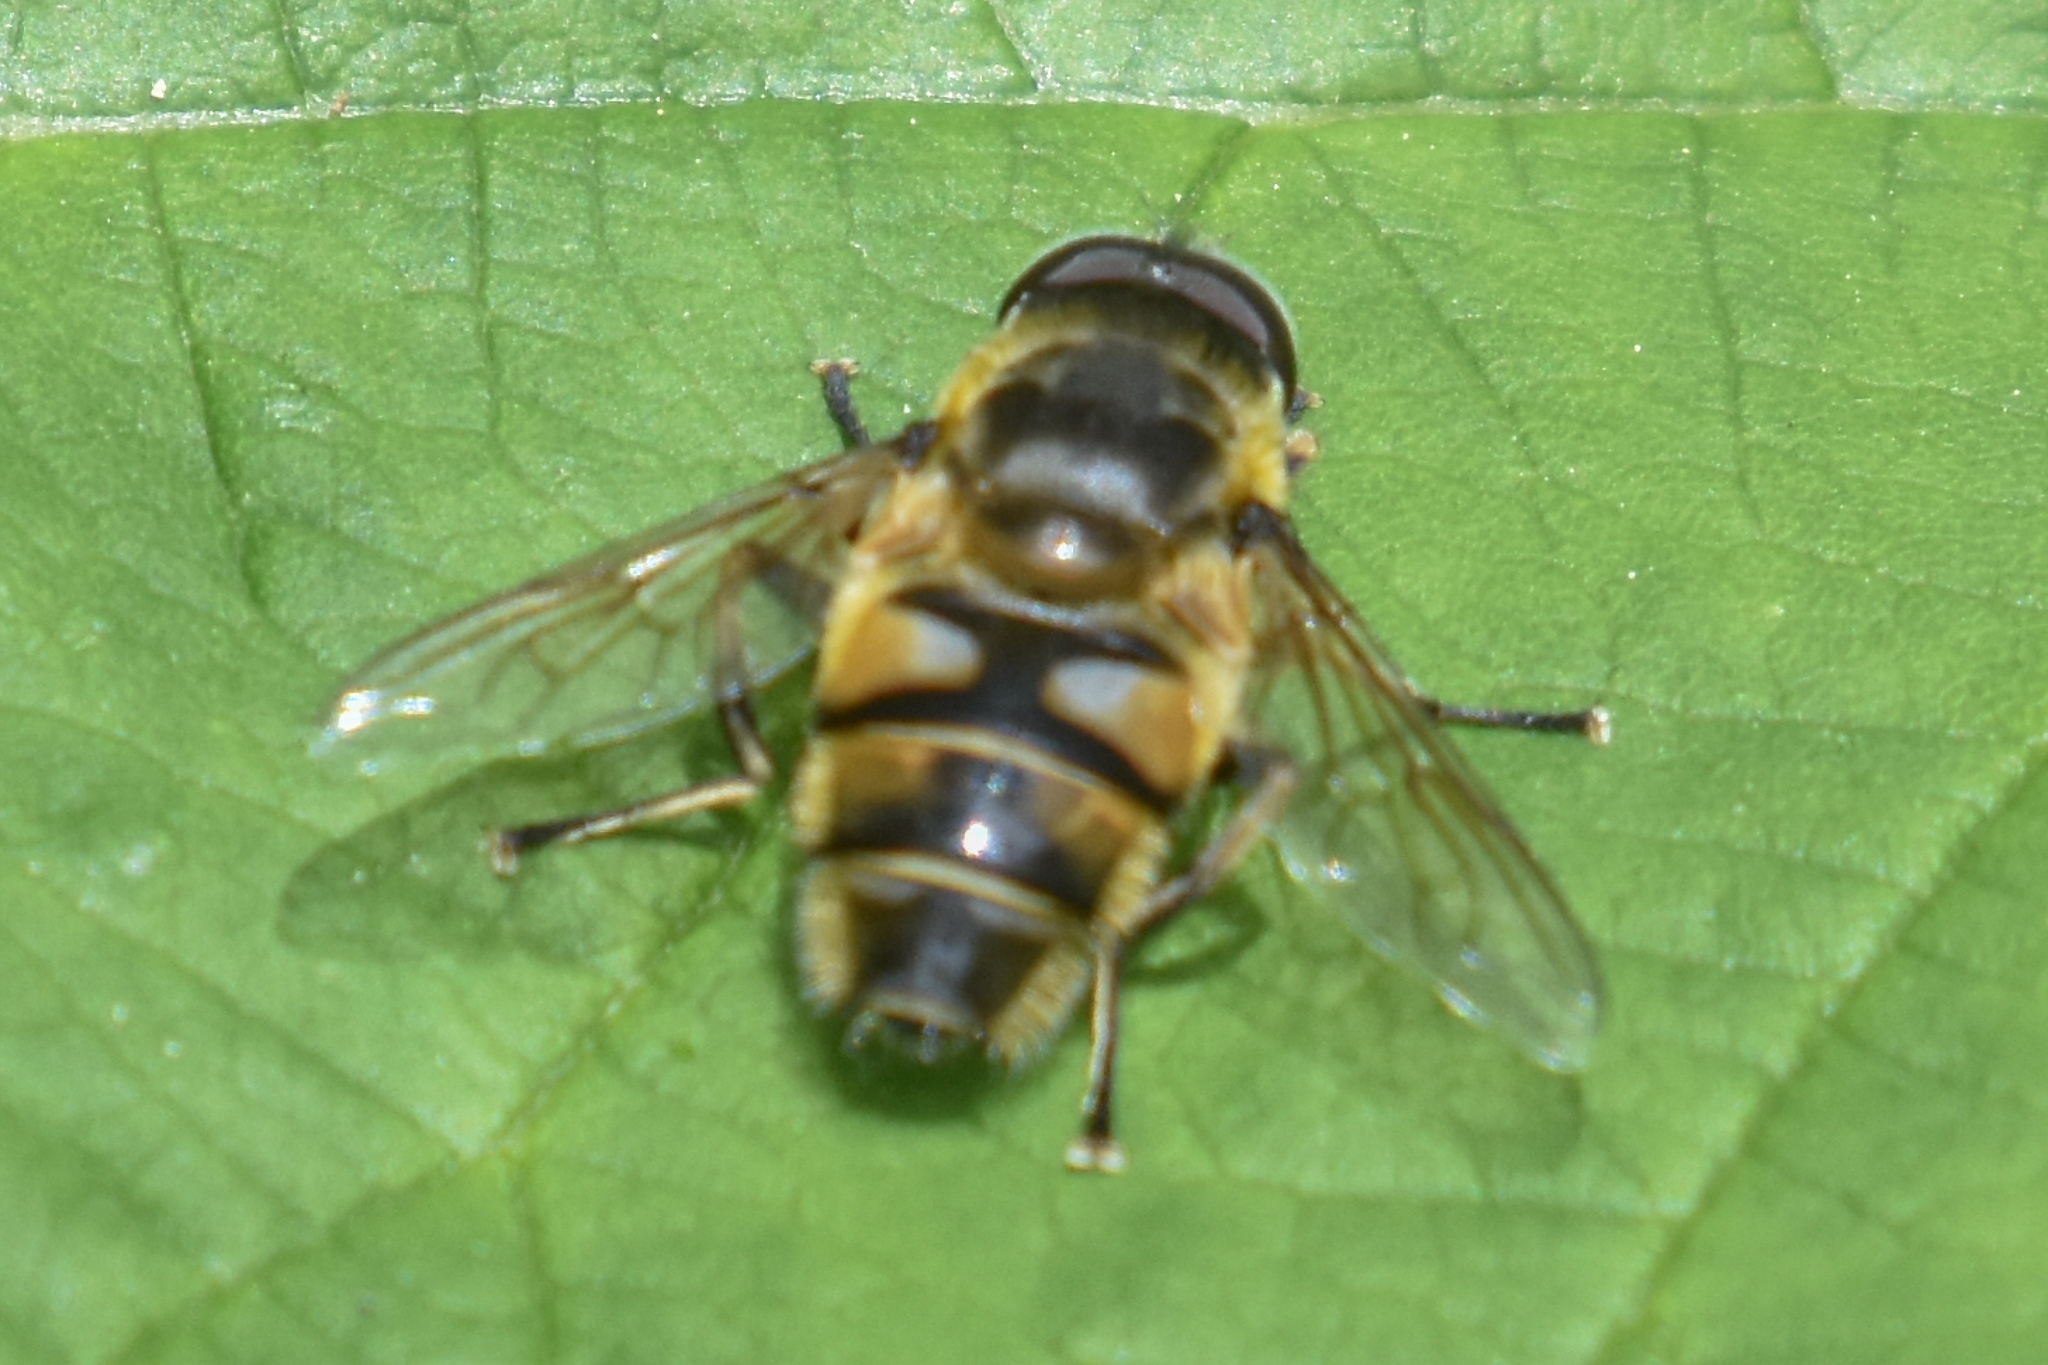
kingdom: Animalia
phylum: Arthropoda
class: Insecta
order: Diptera
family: Syrphidae
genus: Myathropa
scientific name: Myathropa florea
